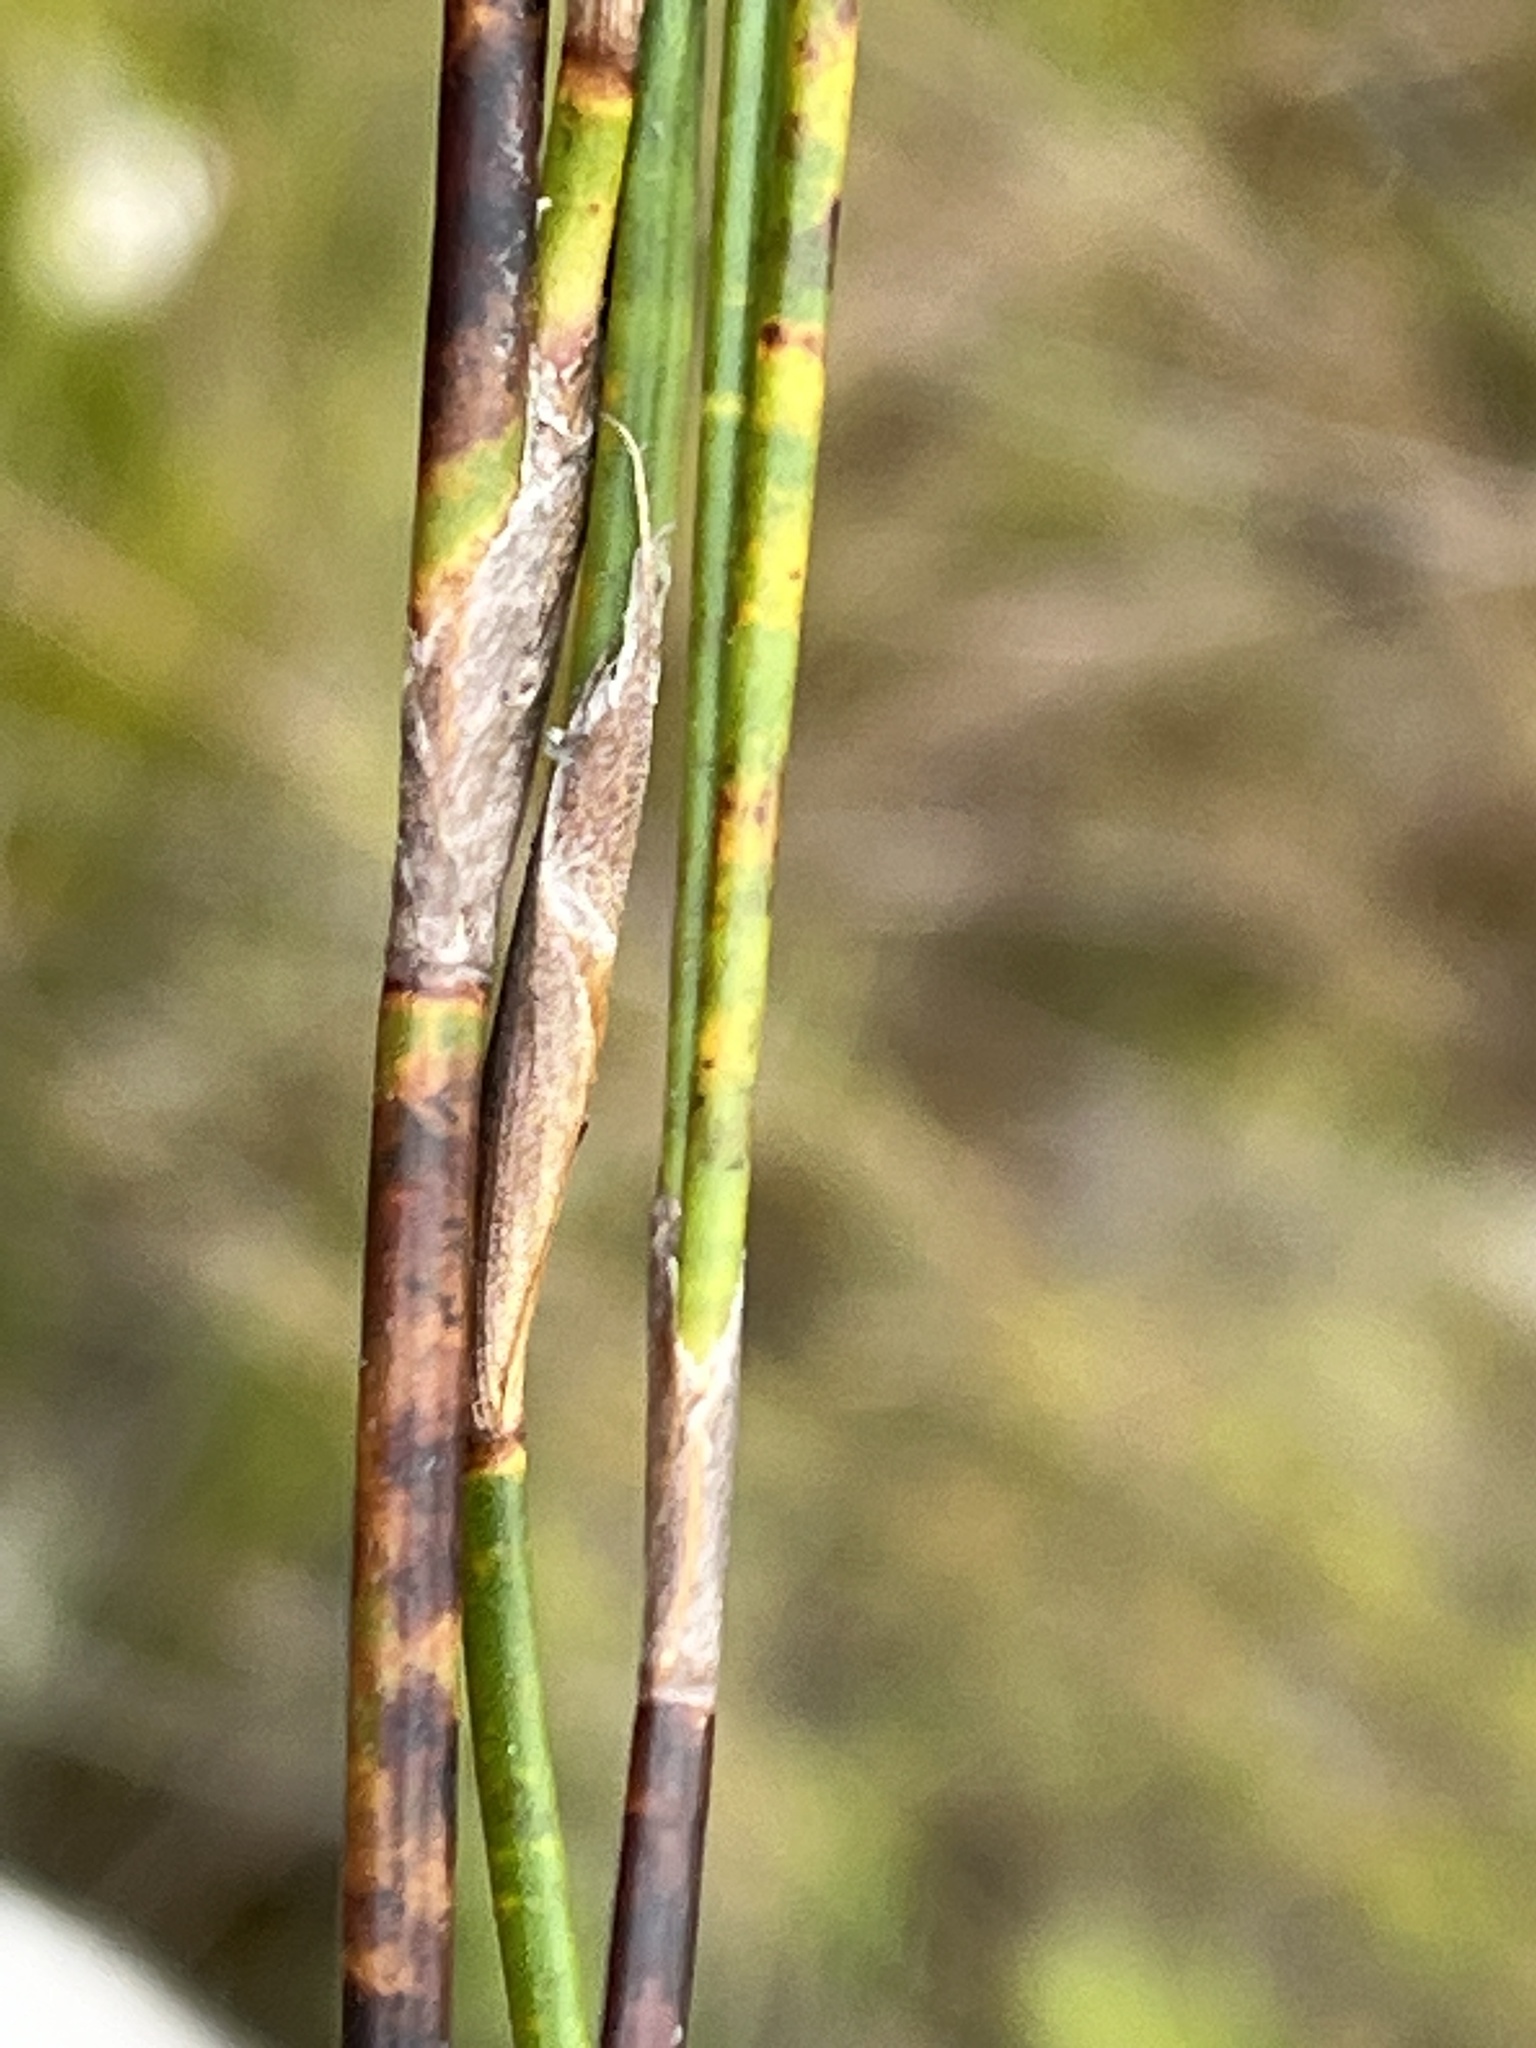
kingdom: Plantae
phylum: Tracheophyta
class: Liliopsida
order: Poales
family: Restionaceae
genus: Restio
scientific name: Restio inconspicuus
